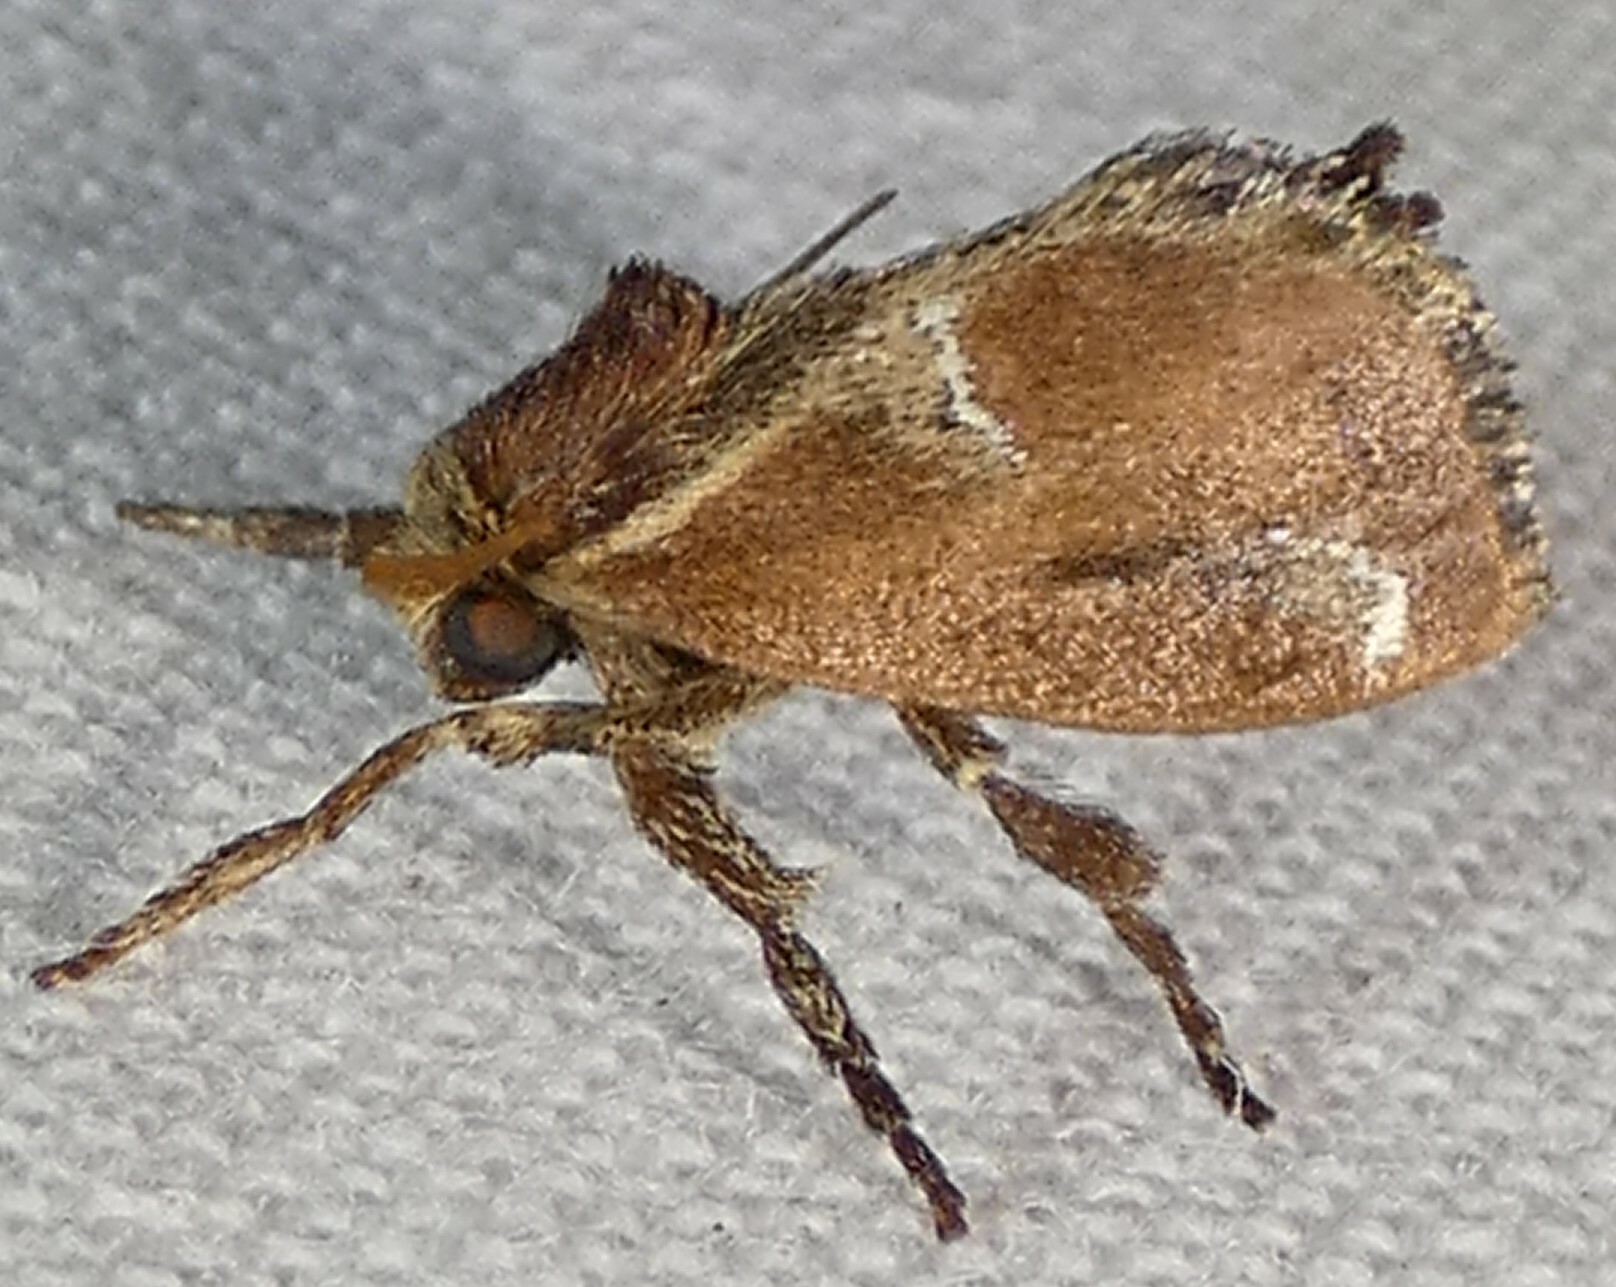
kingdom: Animalia
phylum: Arthropoda
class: Insecta
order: Lepidoptera
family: Limacodidae
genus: Adoneta
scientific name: Adoneta spinuloides
